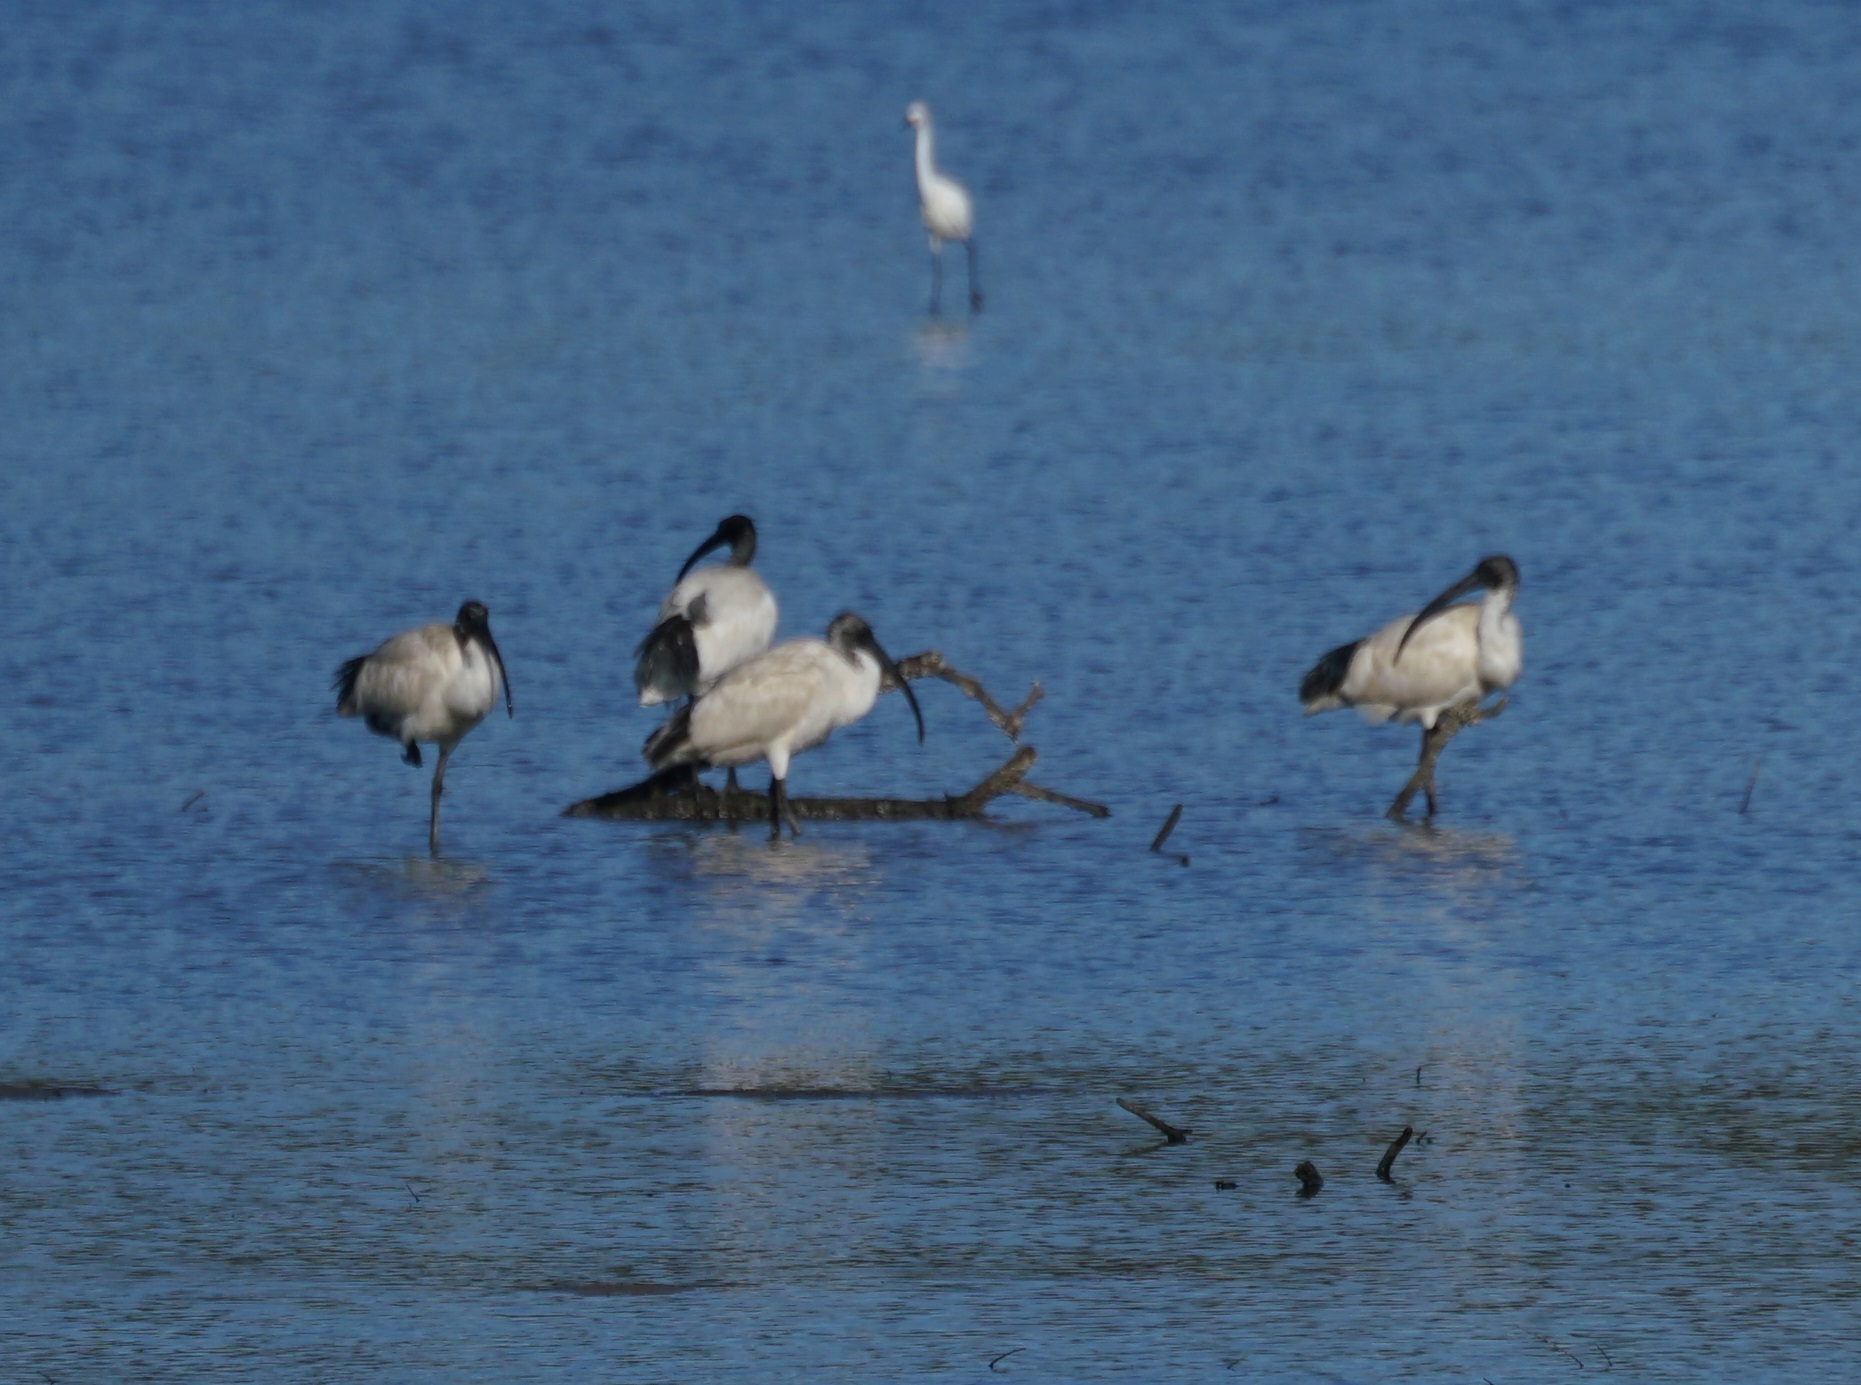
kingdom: Animalia
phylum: Chordata
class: Aves
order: Pelecaniformes
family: Threskiornithidae
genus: Threskiornis
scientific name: Threskiornis molucca
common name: Australian white ibis
